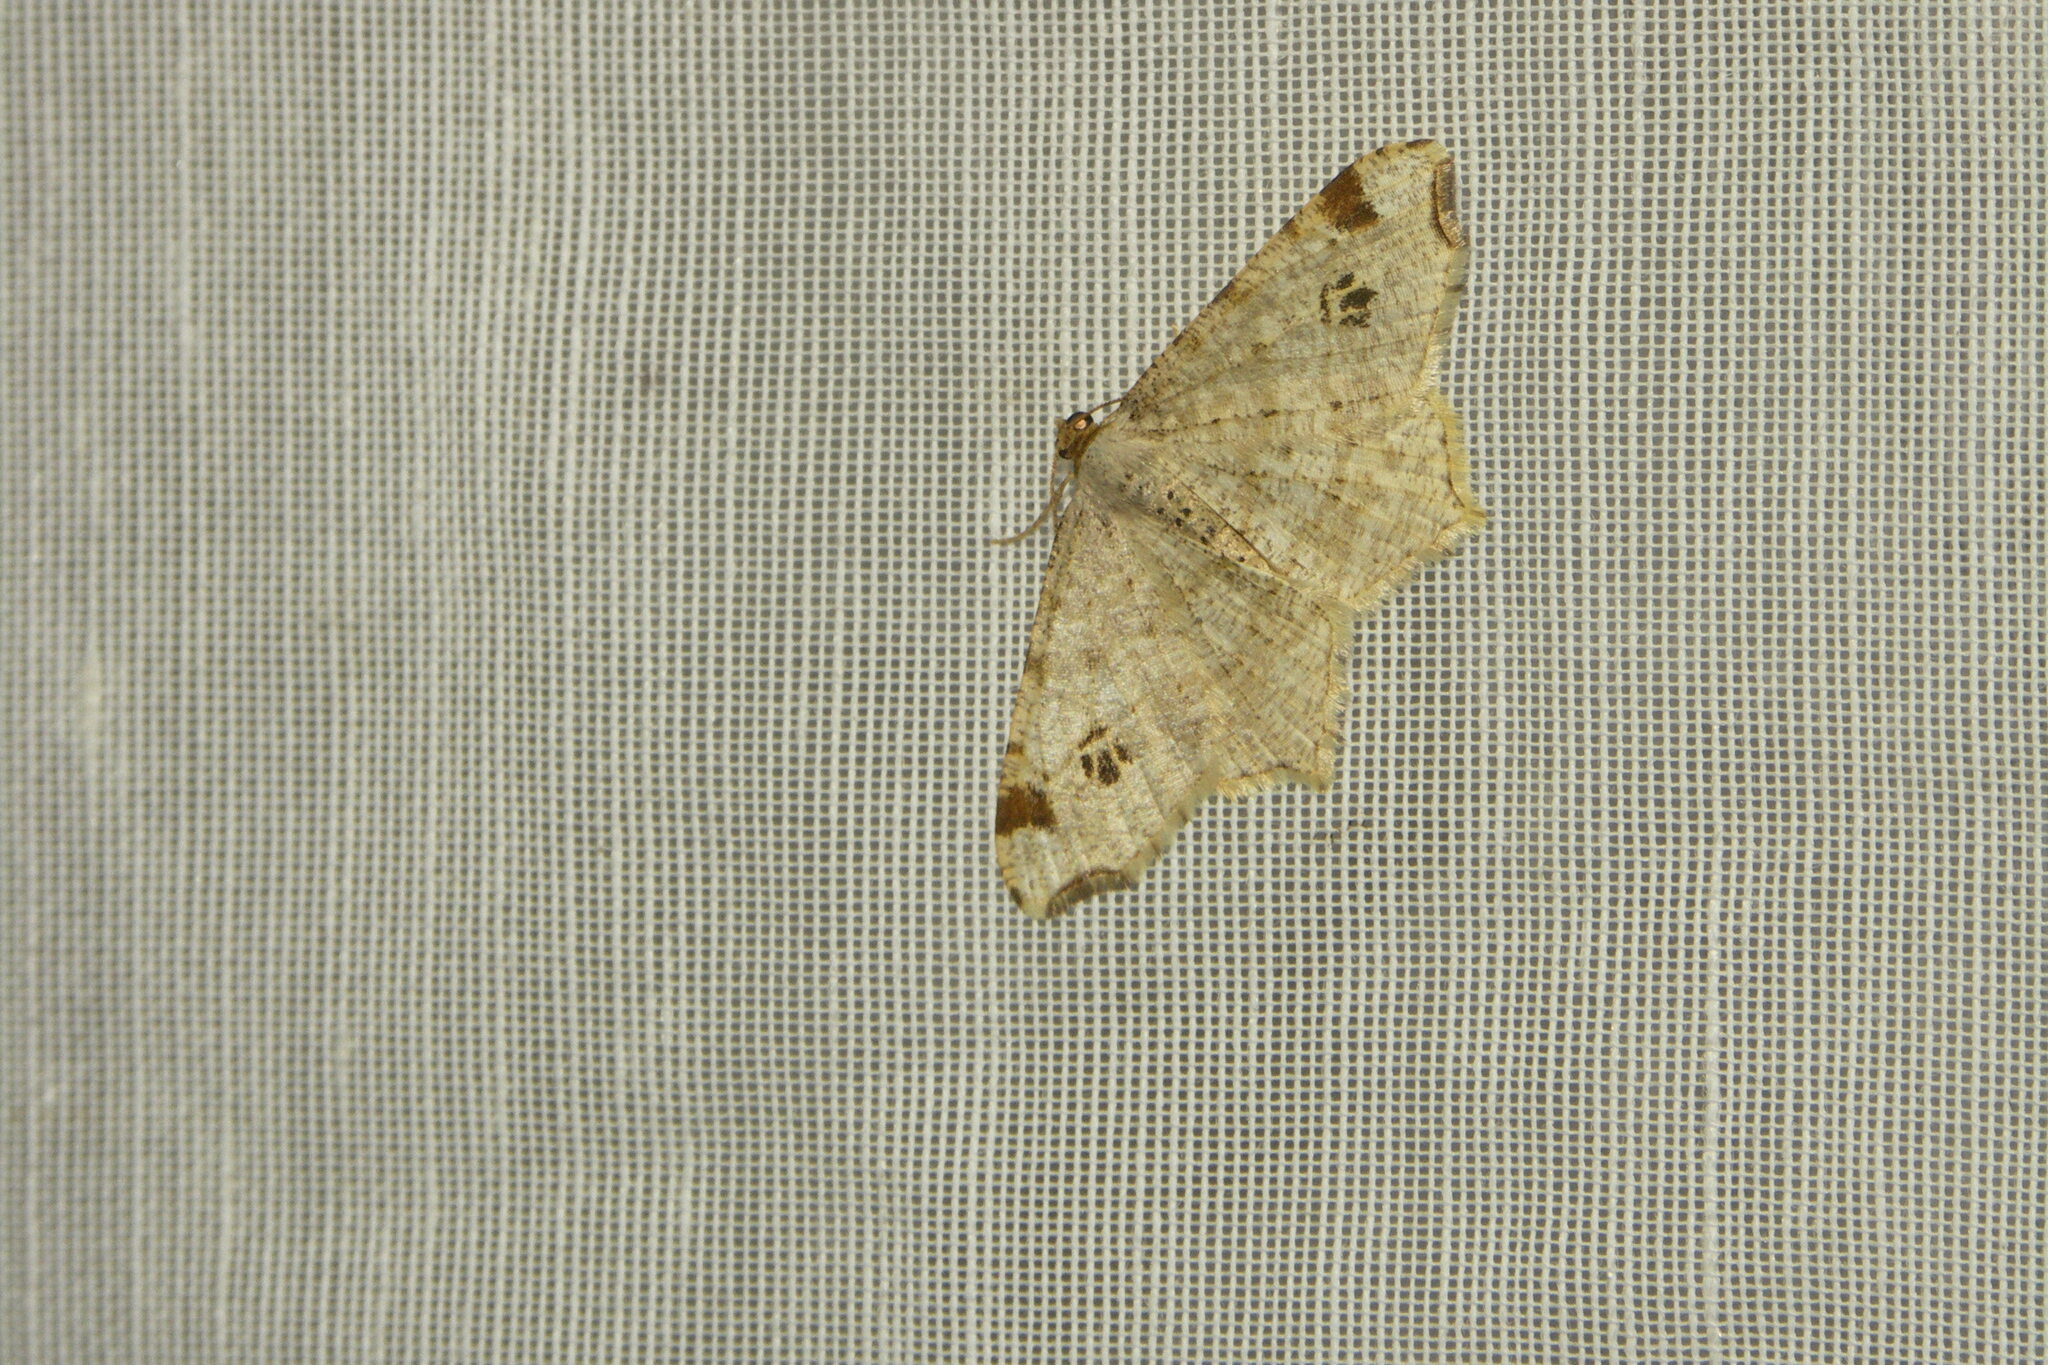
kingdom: Animalia
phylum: Arthropoda
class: Insecta
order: Lepidoptera
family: Geometridae
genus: Macaria
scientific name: Macaria notata
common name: Peacock moth
